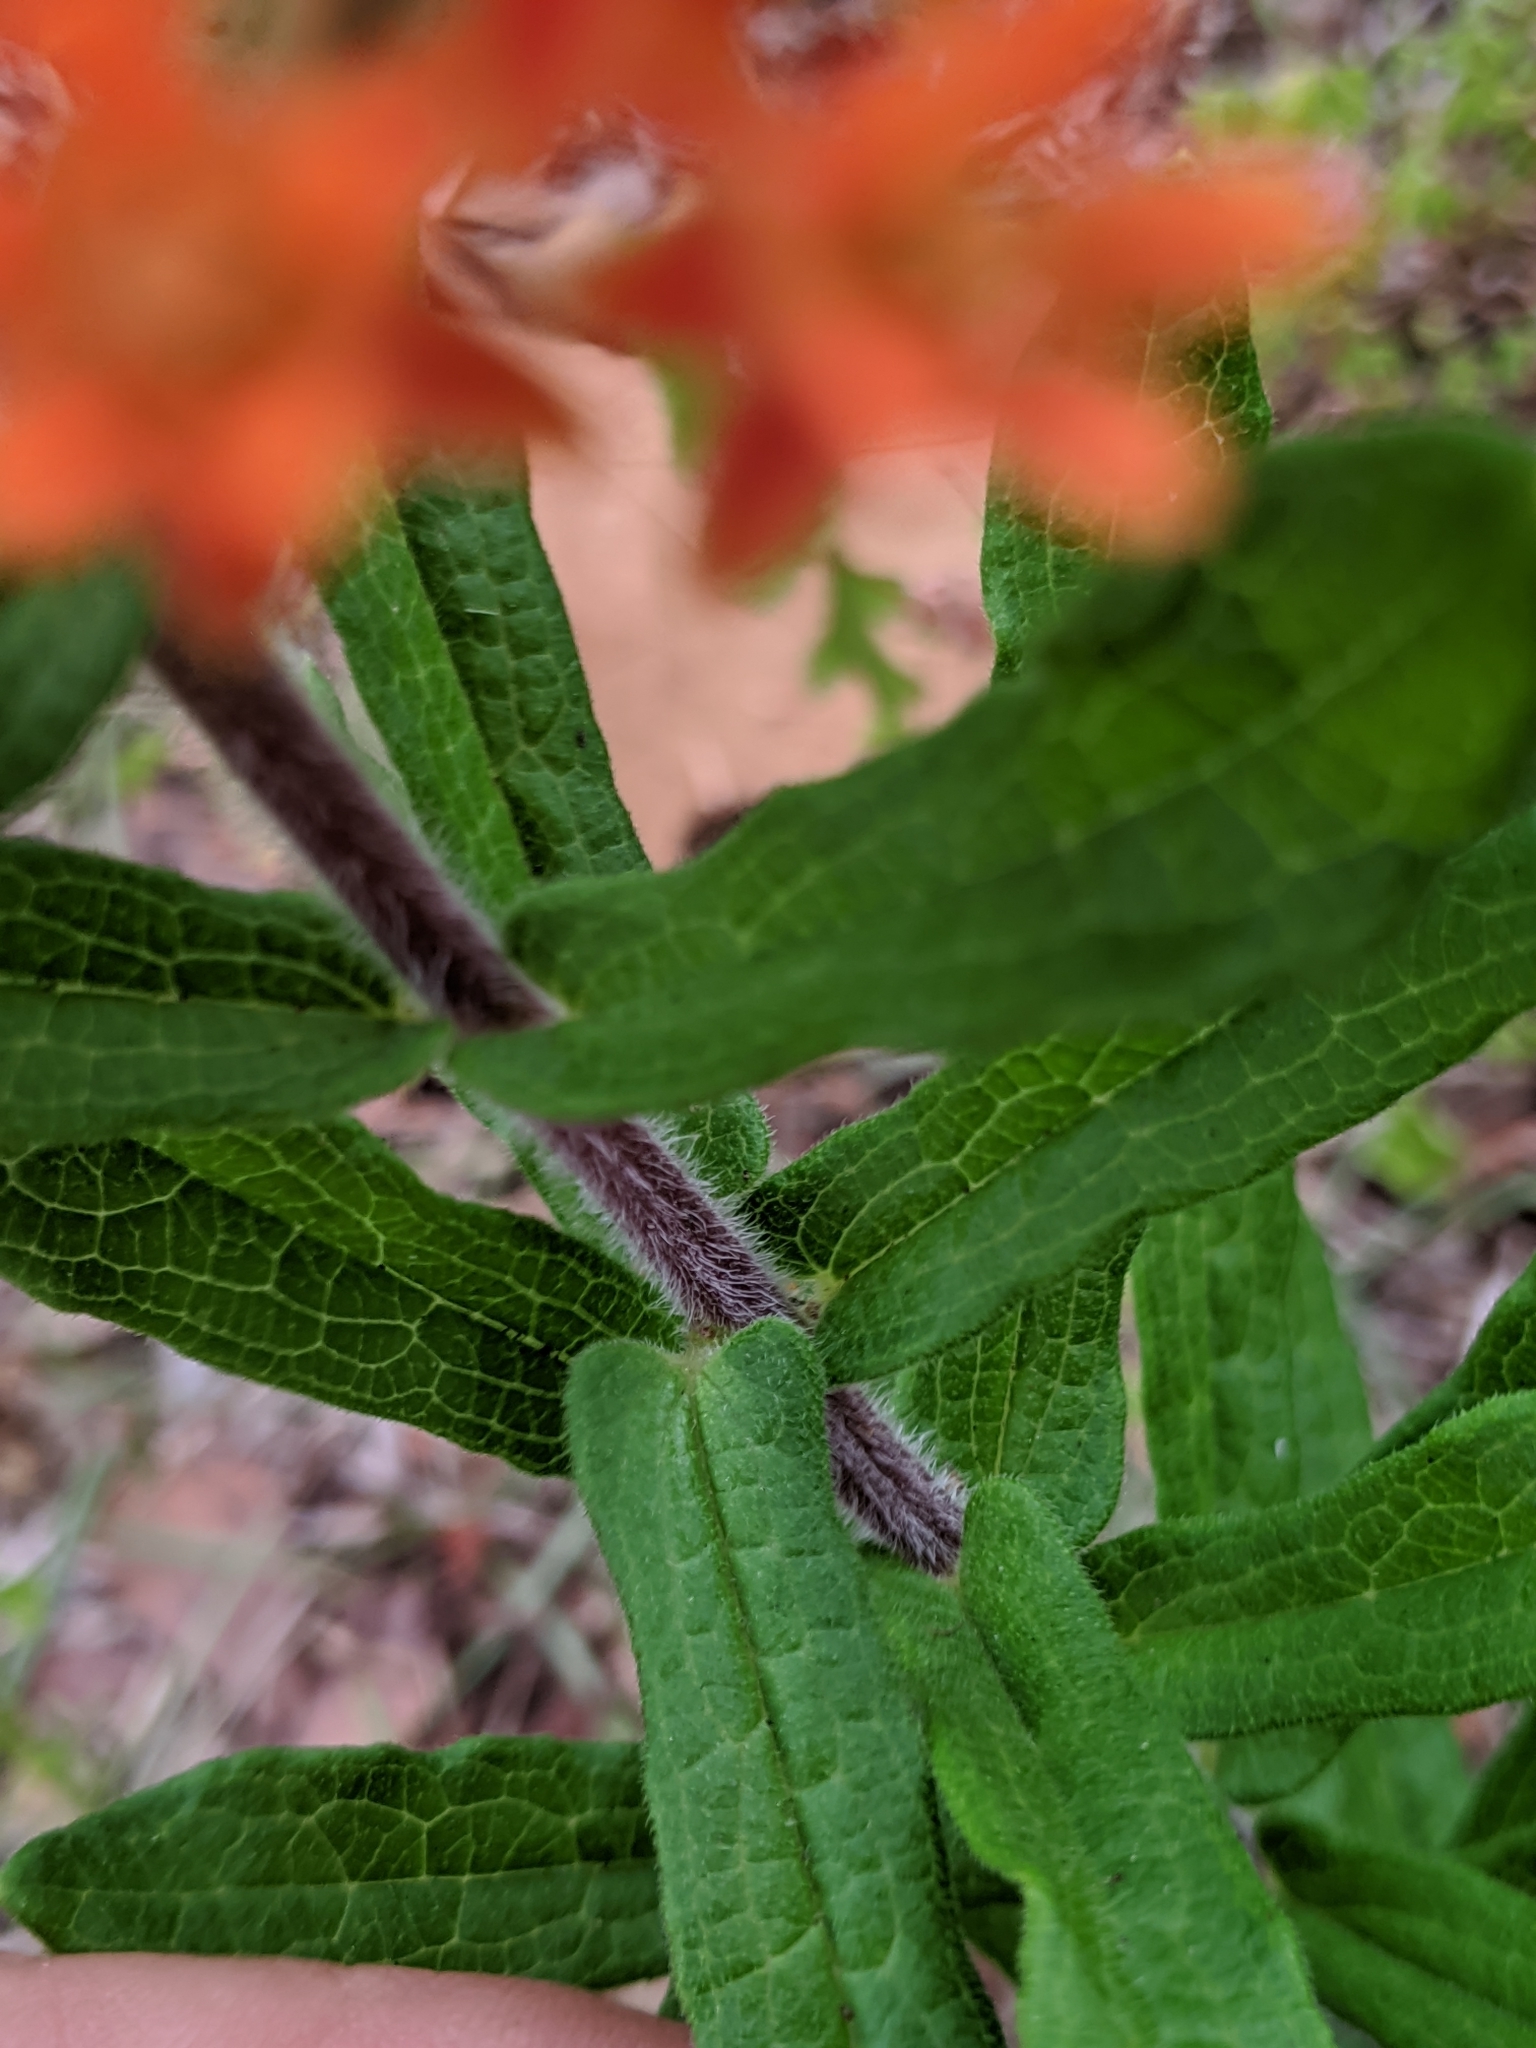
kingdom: Plantae
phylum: Tracheophyta
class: Magnoliopsida
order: Gentianales
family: Apocynaceae
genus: Asclepias
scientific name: Asclepias tuberosa
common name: Butterfly milkweed
